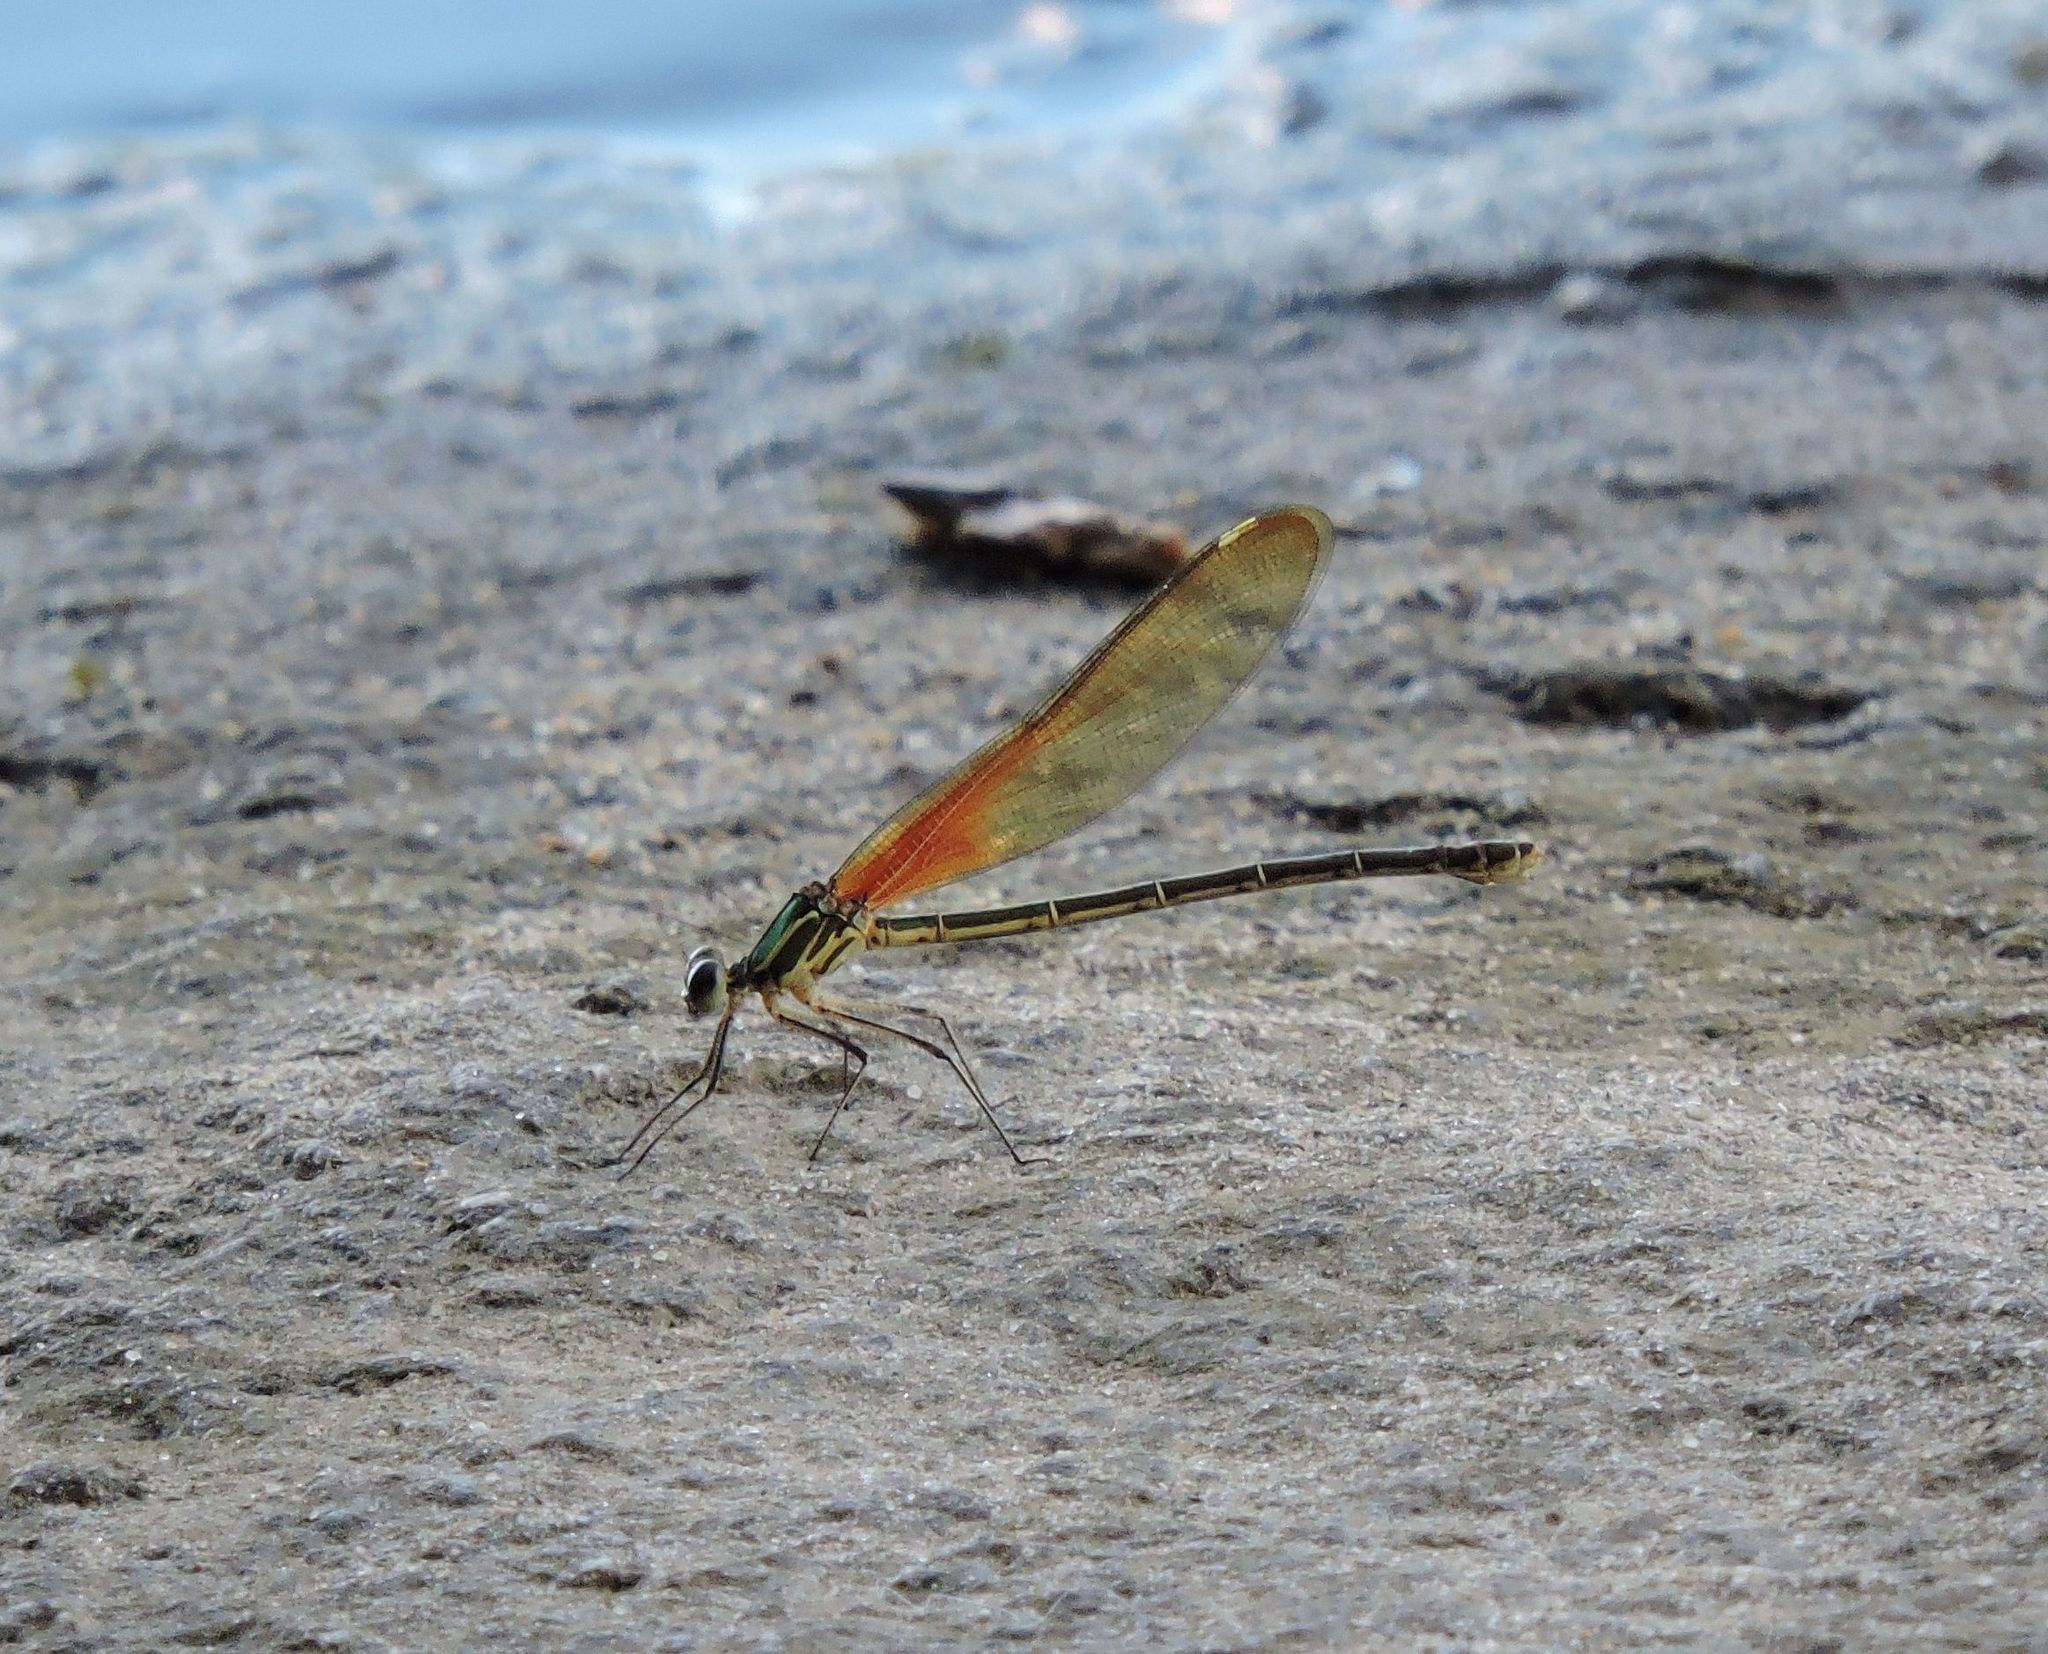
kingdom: Animalia
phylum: Arthropoda
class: Insecta
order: Odonata
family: Calopterygidae
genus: Hetaerina
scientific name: Hetaerina americana
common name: American rubyspot
